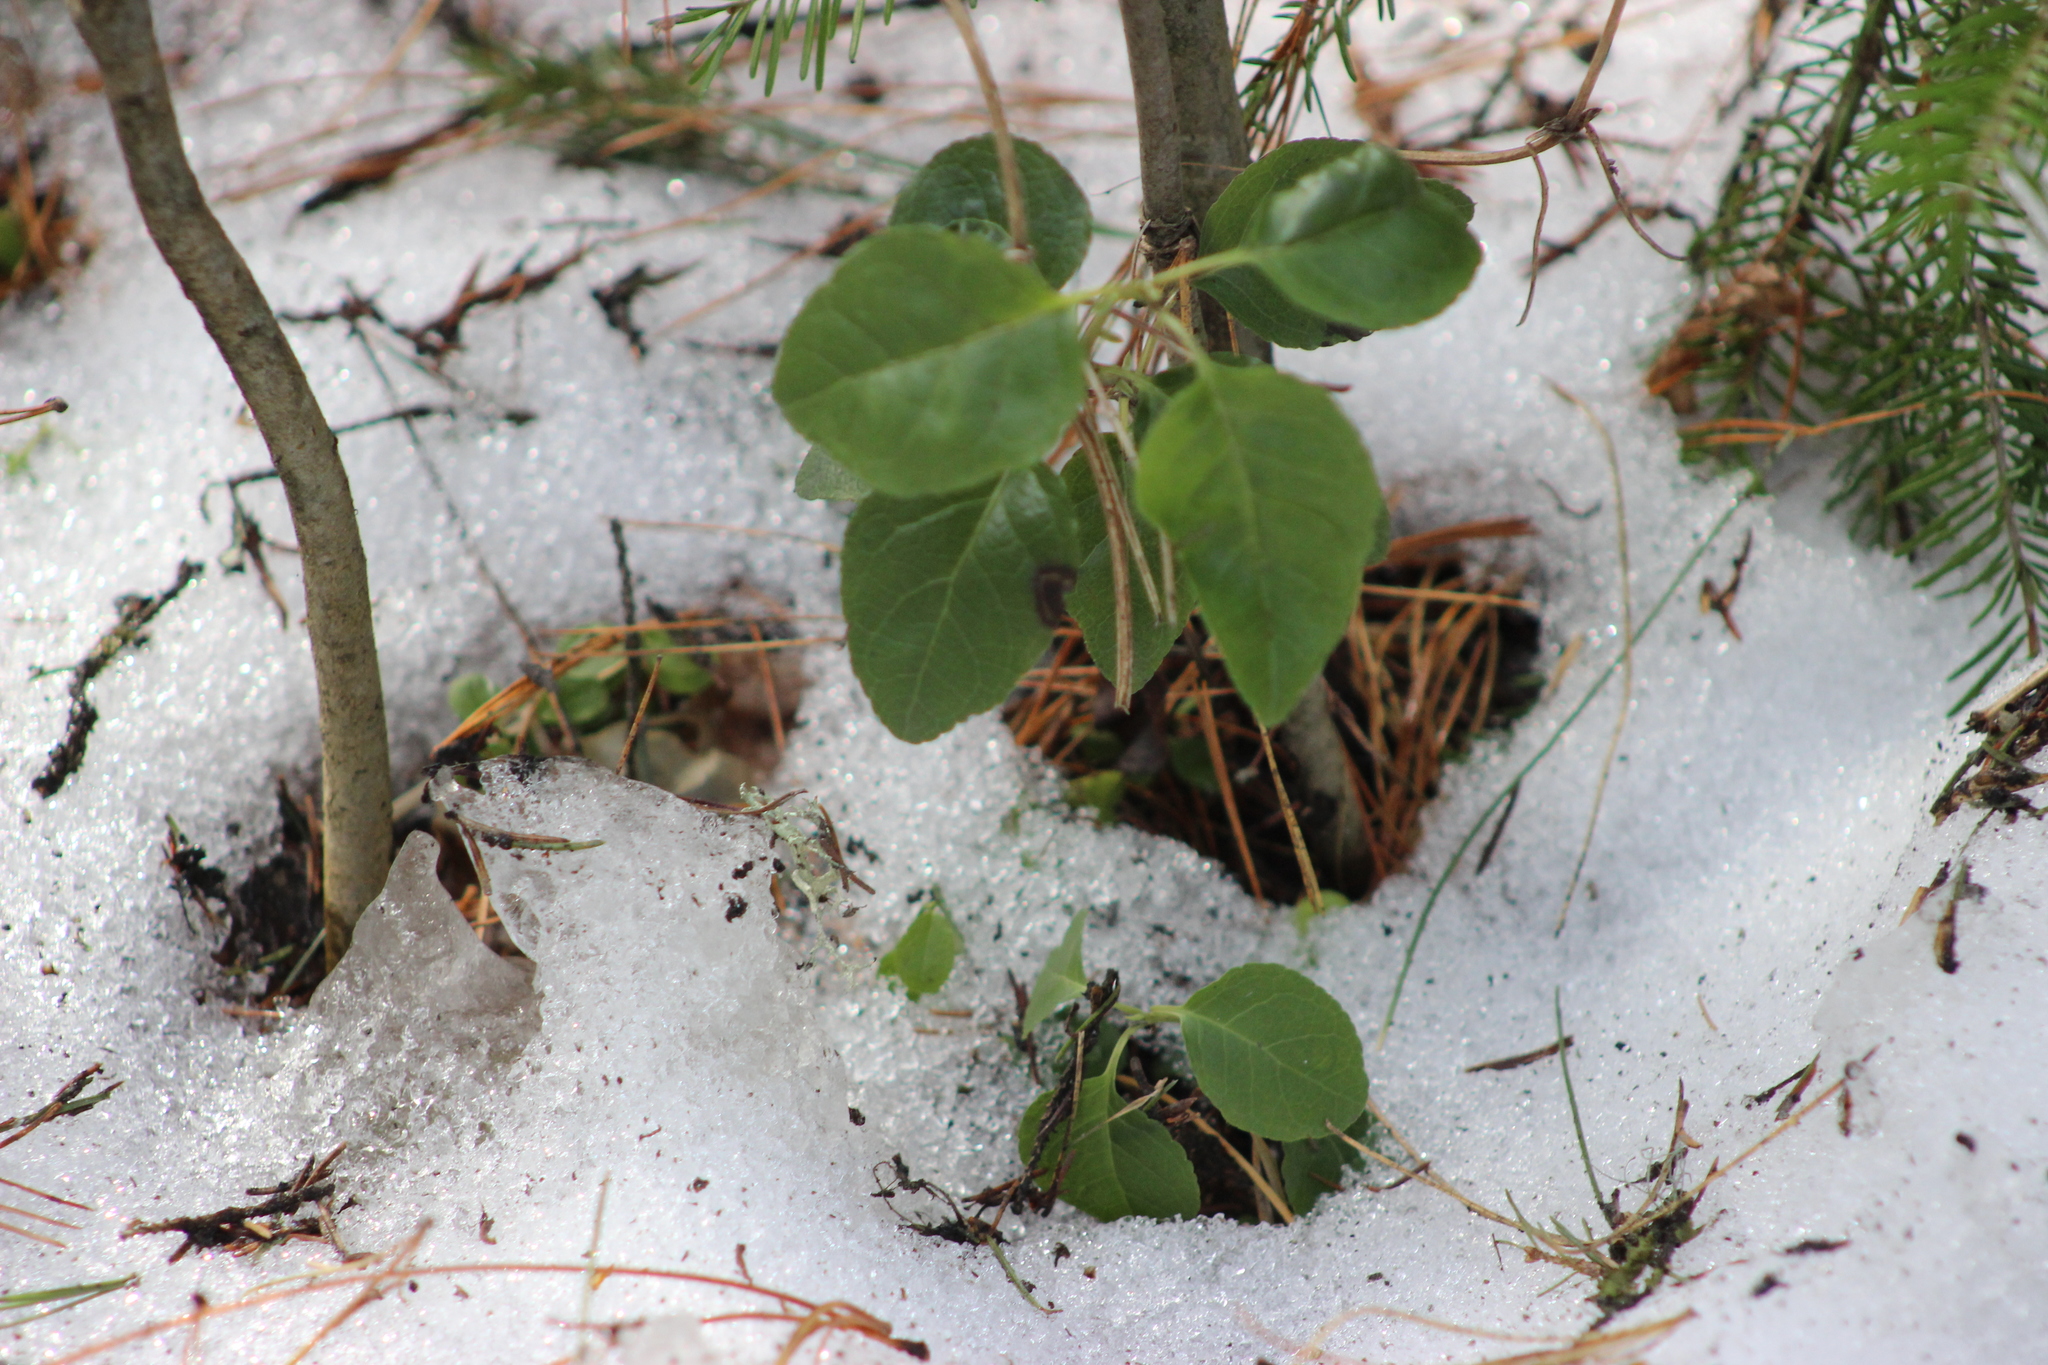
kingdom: Plantae
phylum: Tracheophyta
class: Magnoliopsida
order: Ericales
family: Ericaceae
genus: Orthilia
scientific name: Orthilia secunda
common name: One-sided orthilia
